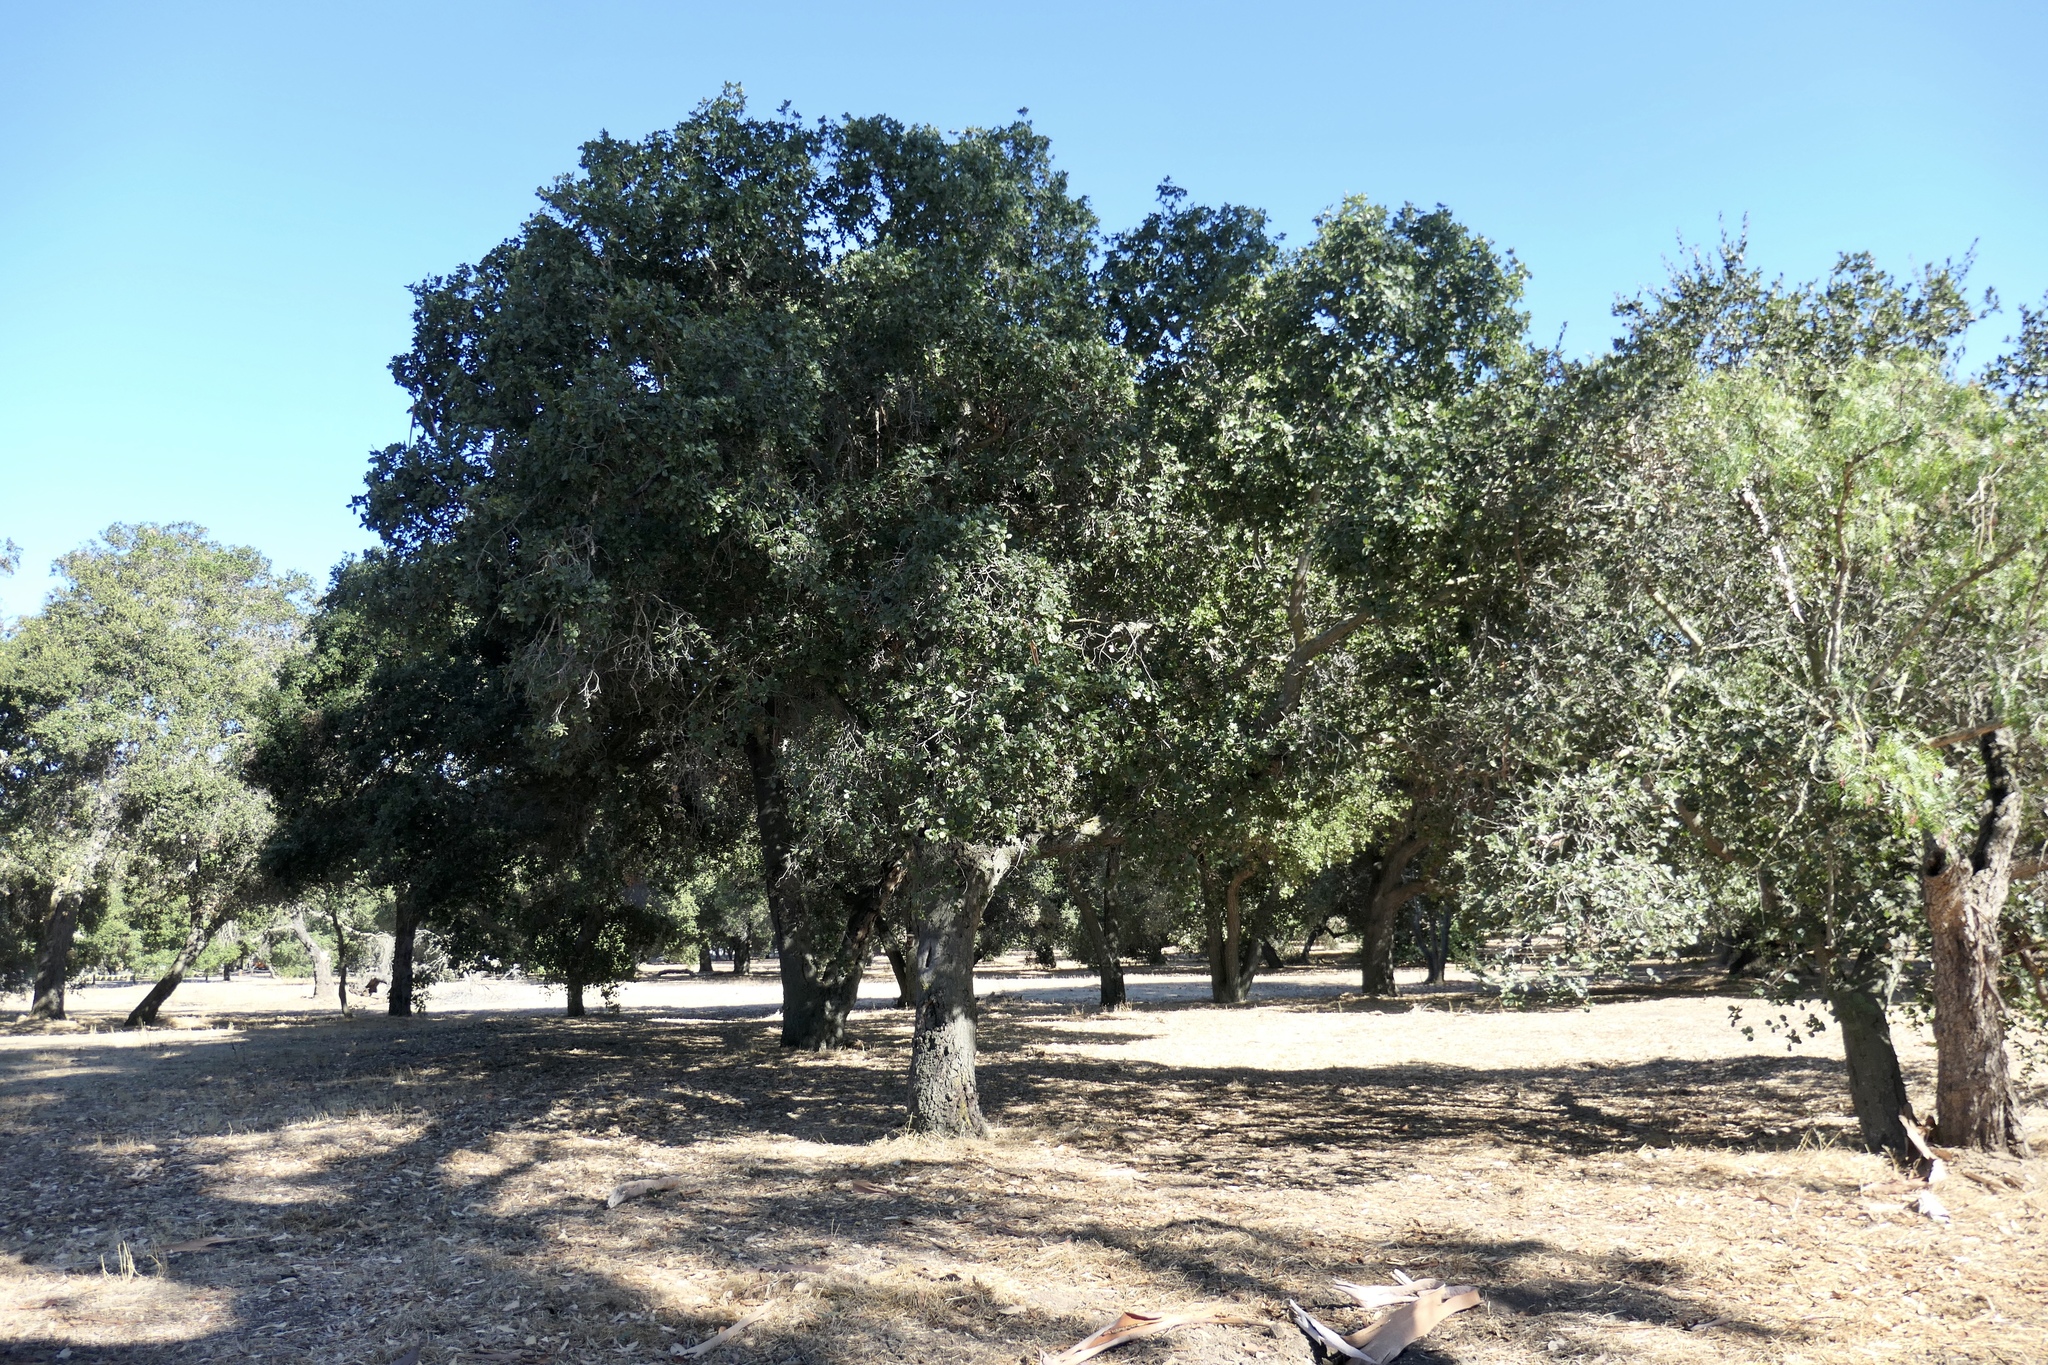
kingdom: Plantae
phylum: Tracheophyta
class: Magnoliopsida
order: Fagales
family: Fagaceae
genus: Quercus
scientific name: Quercus agrifolia
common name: California live oak
